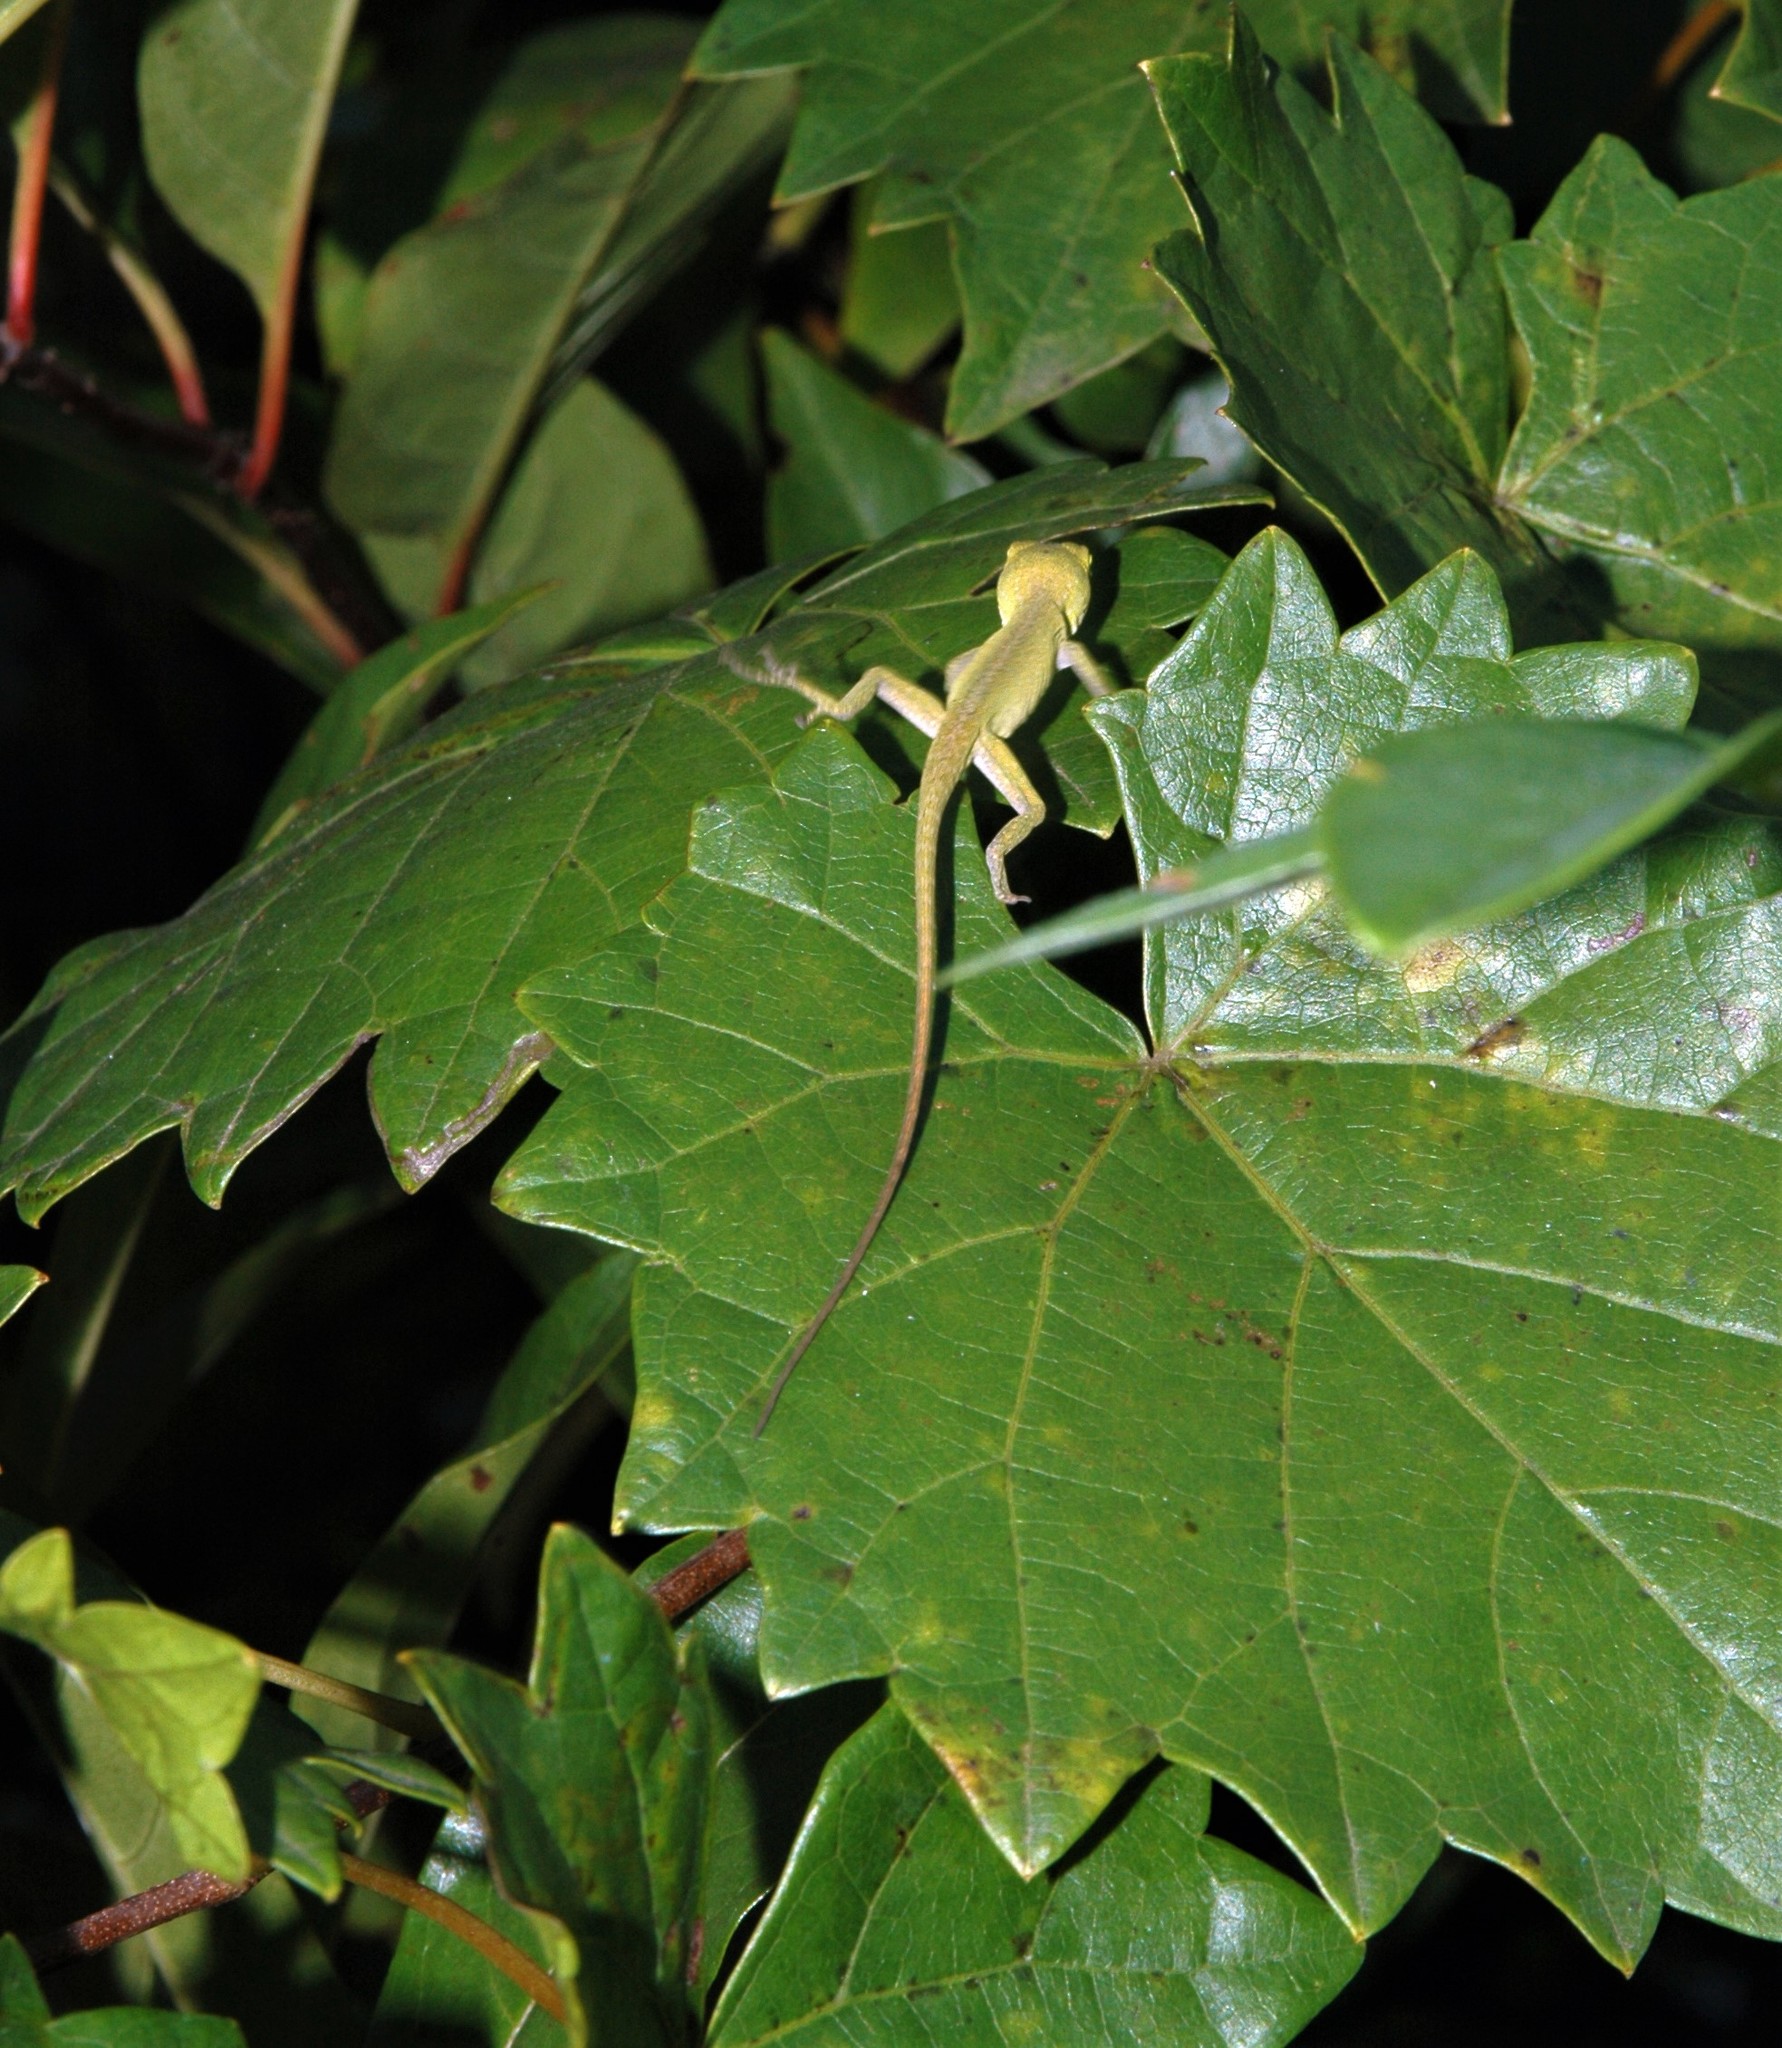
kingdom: Animalia
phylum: Chordata
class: Squamata
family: Dactyloidae
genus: Anolis
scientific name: Anolis carolinensis
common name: Green anole
